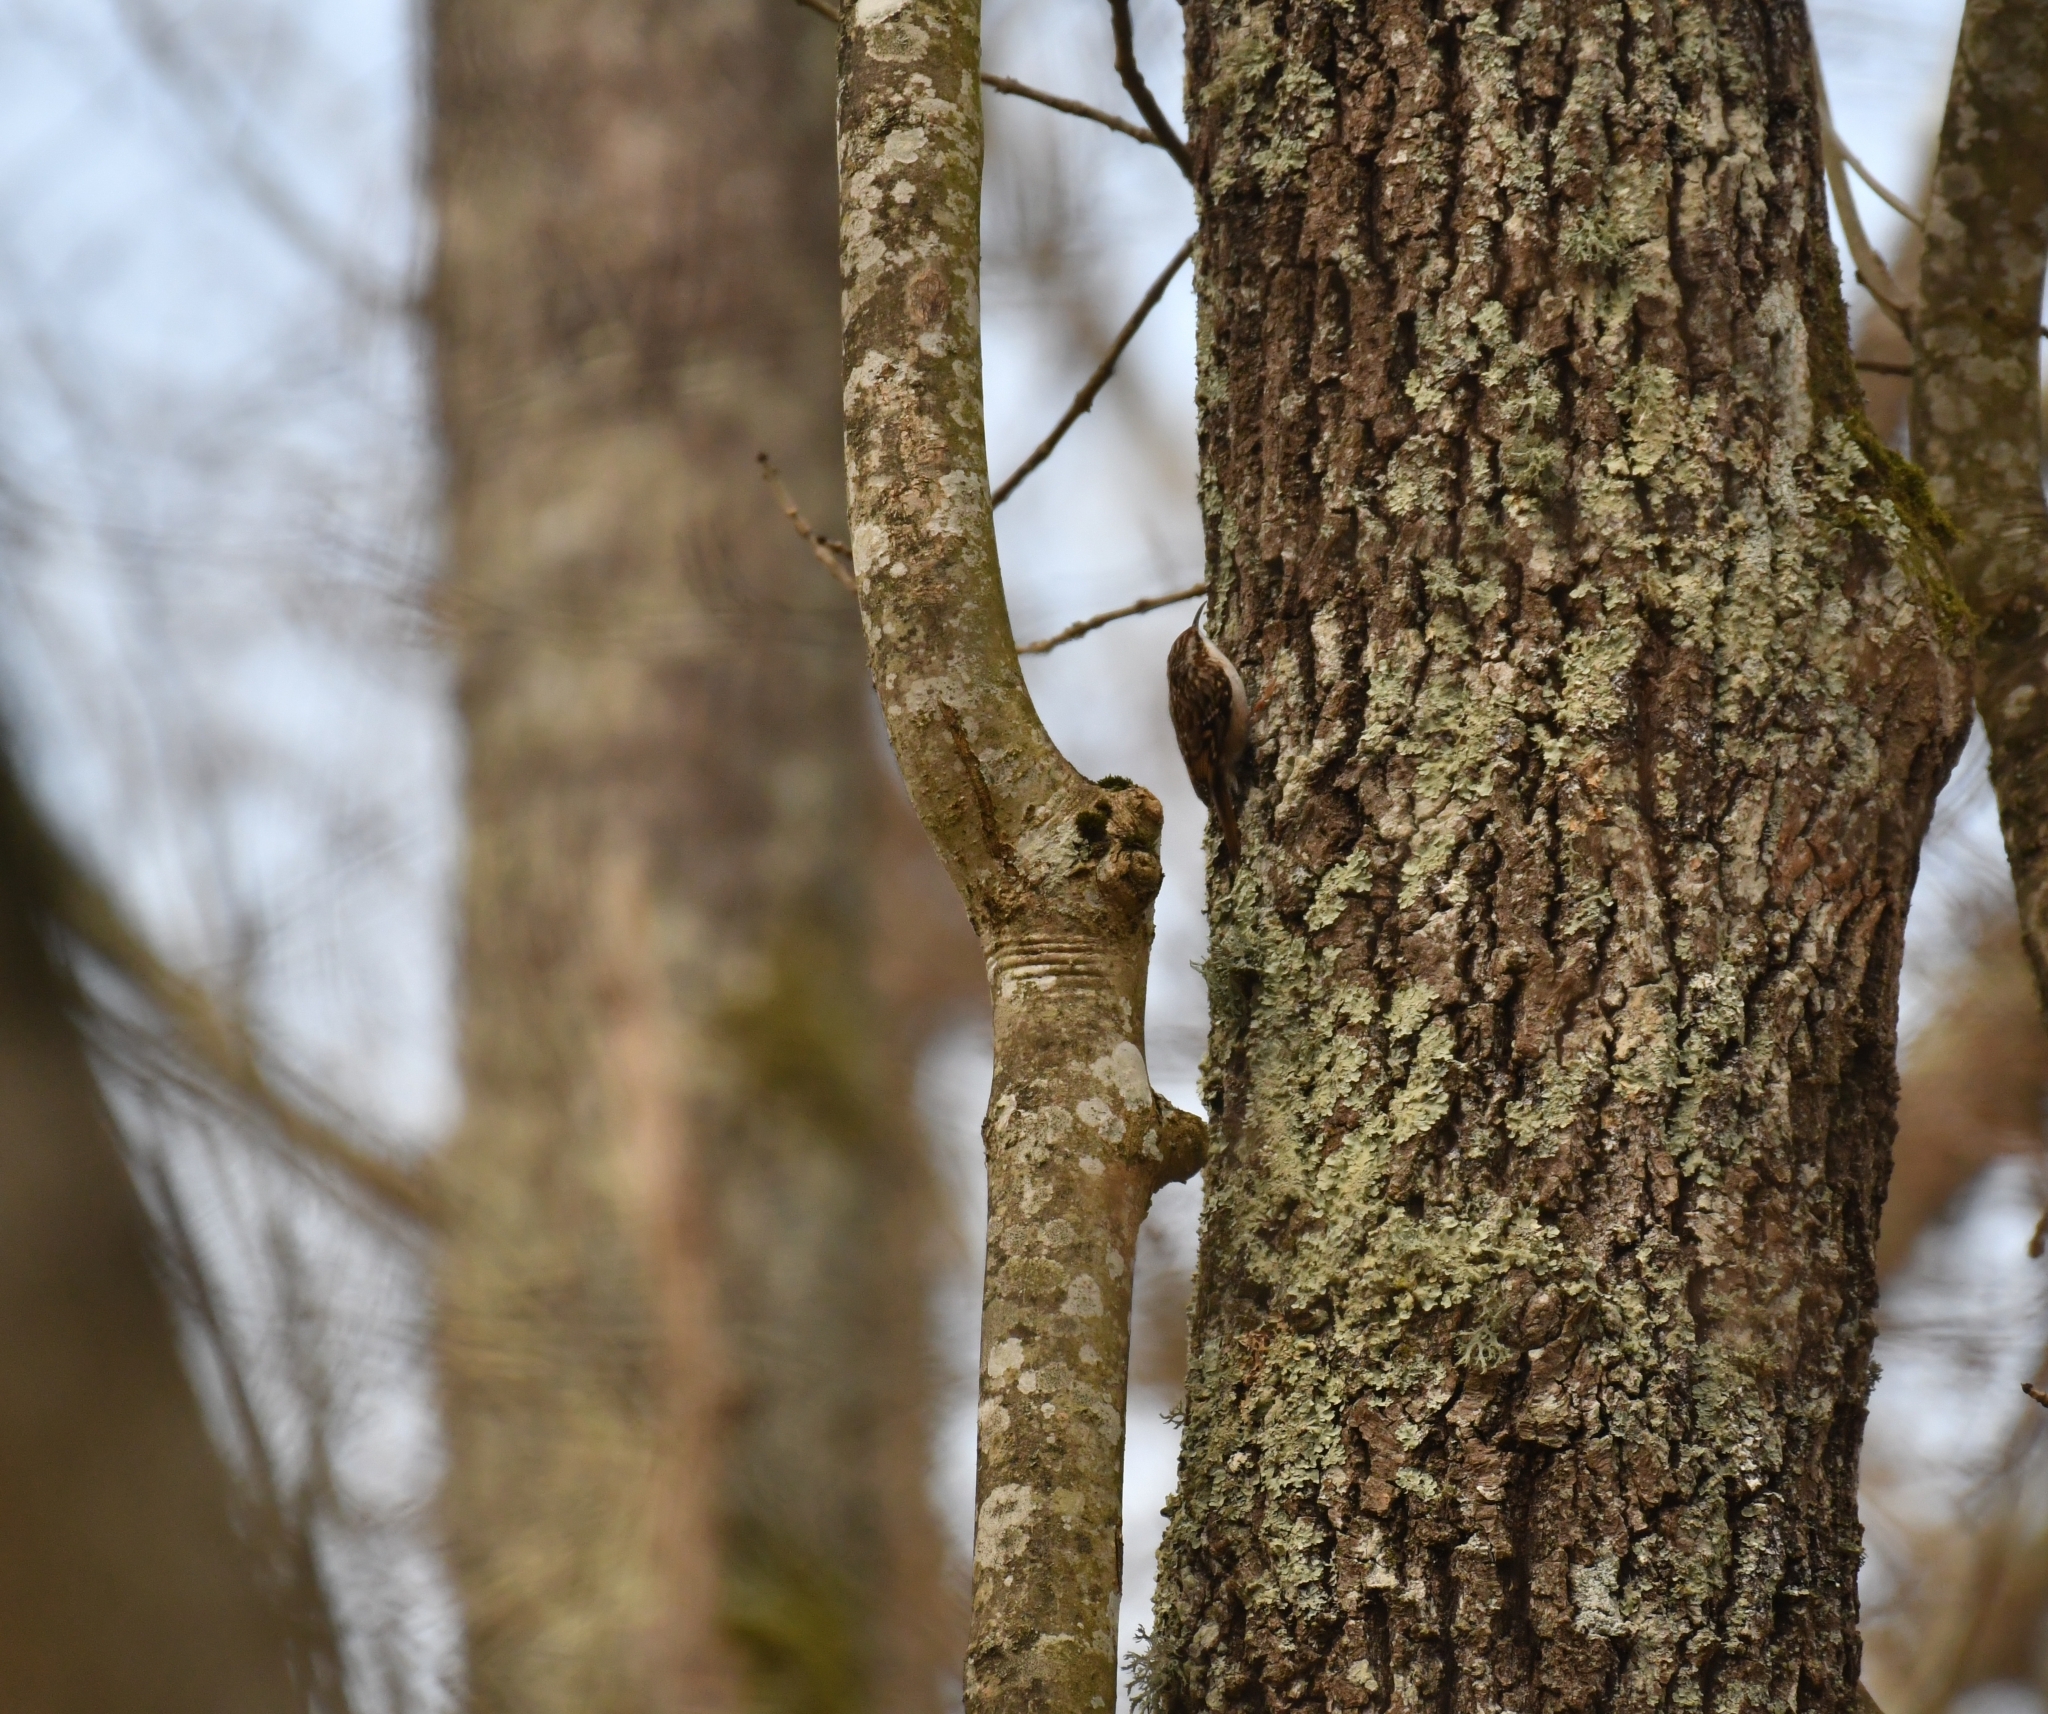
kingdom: Animalia
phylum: Chordata
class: Aves
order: Passeriformes
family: Certhiidae
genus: Certhia
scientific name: Certhia brachydactyla
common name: Short-toed treecreeper
